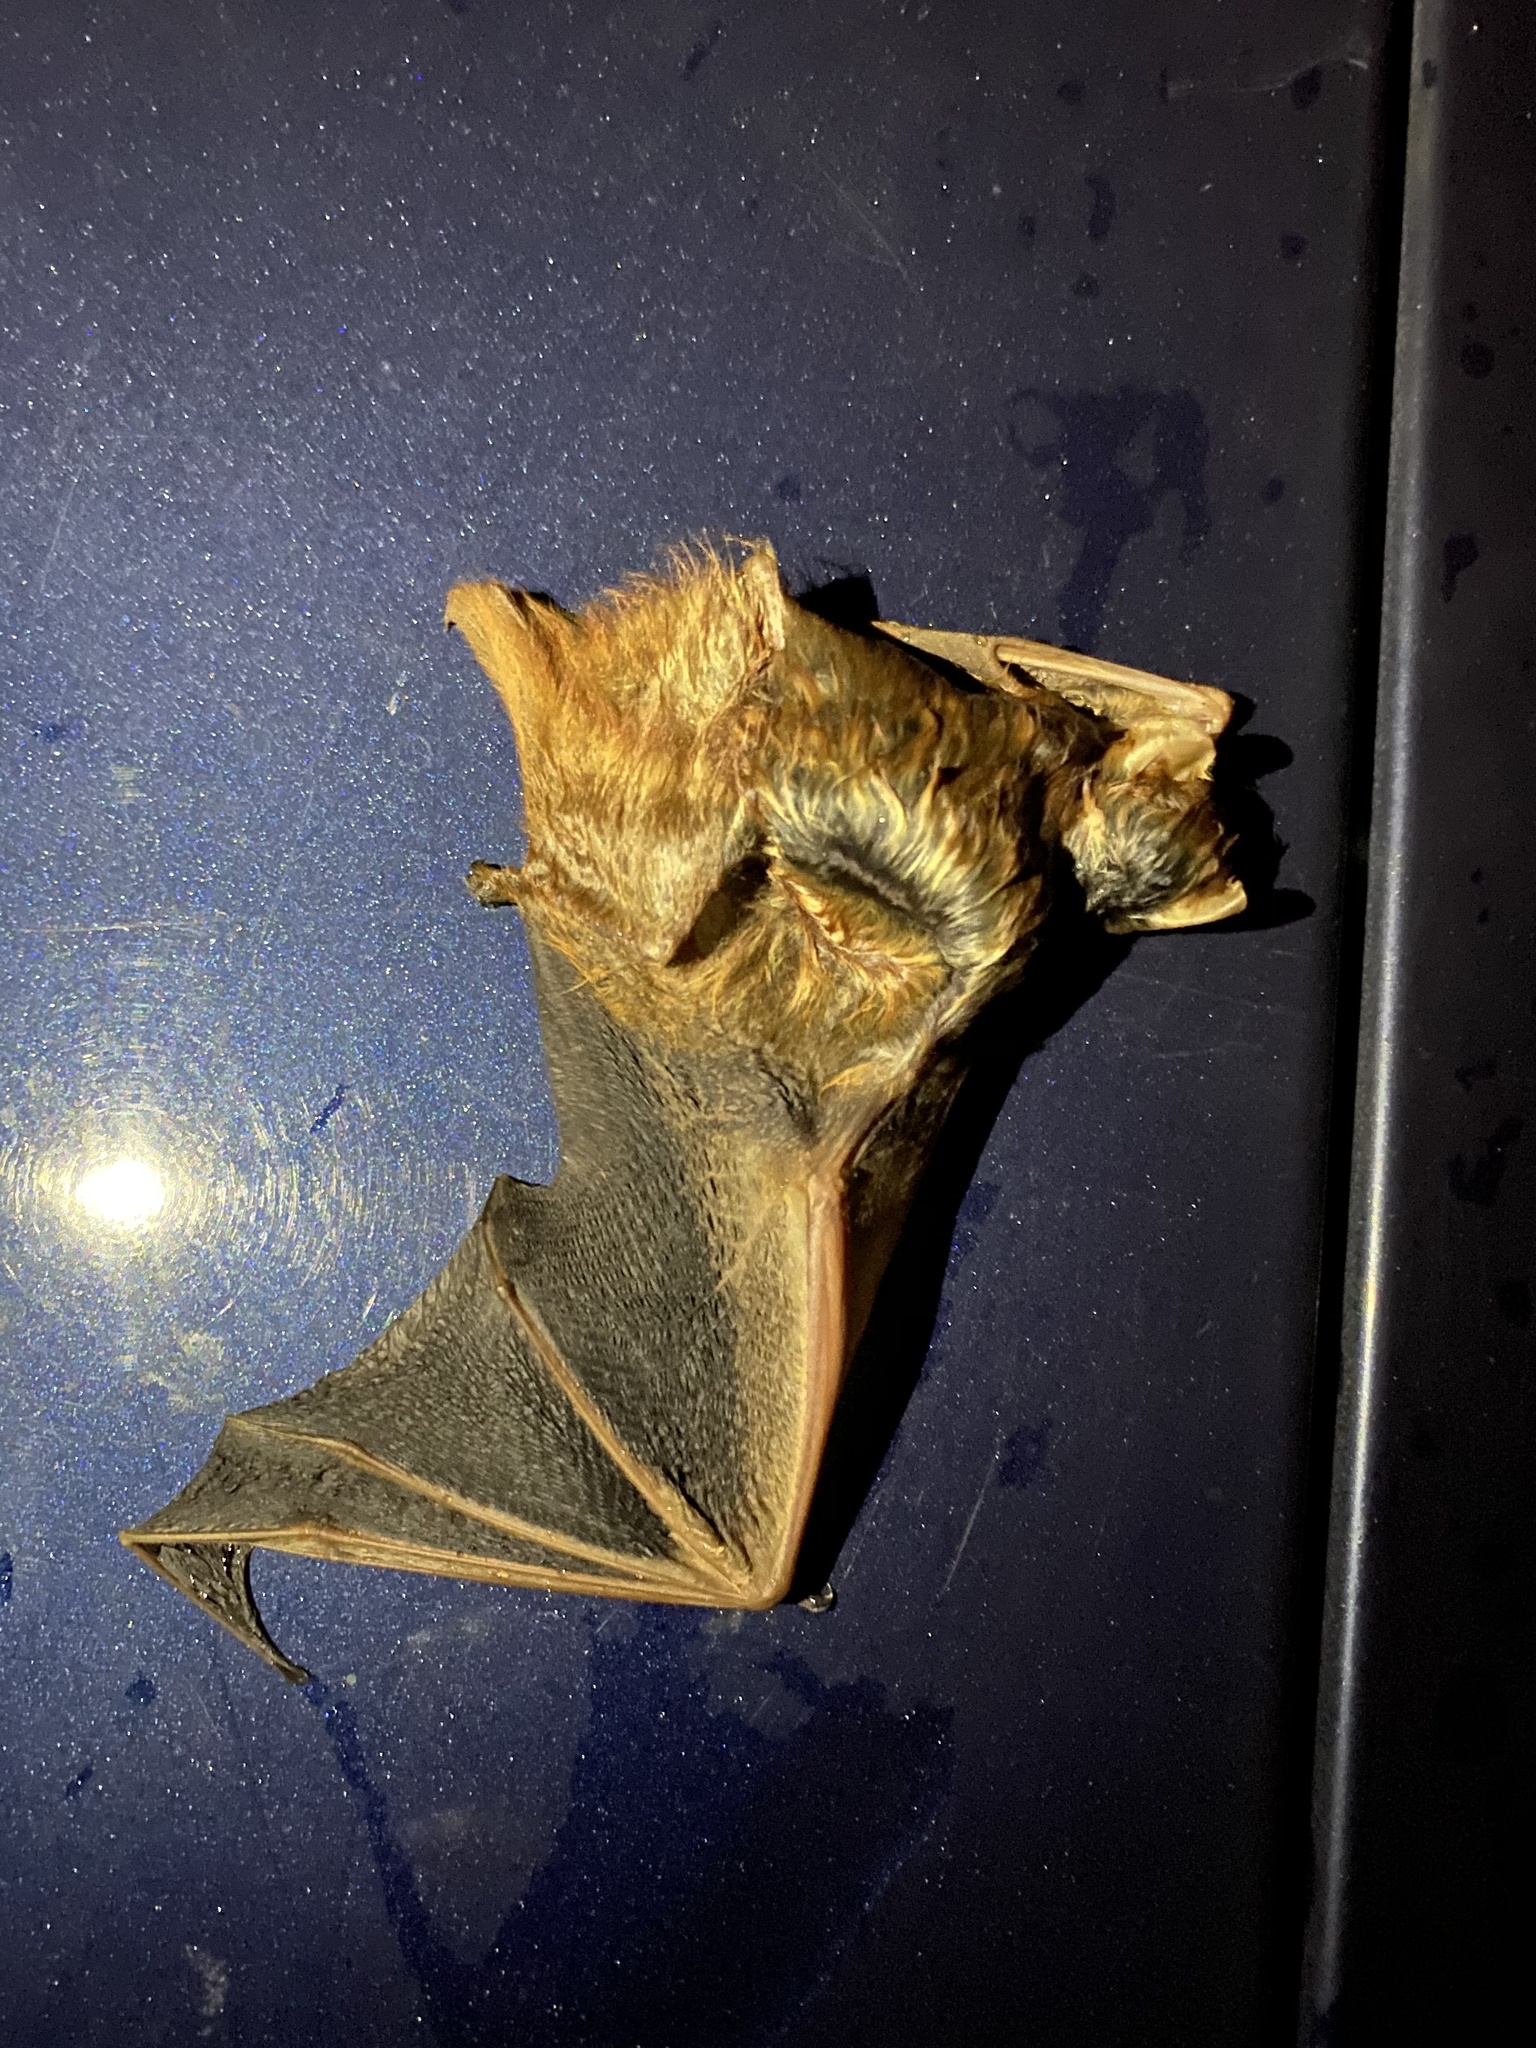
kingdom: Animalia
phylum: Chordata
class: Mammalia
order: Chiroptera
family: Vespertilionidae
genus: Lasiurus
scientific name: Lasiurus borealis
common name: Eastern red bat
